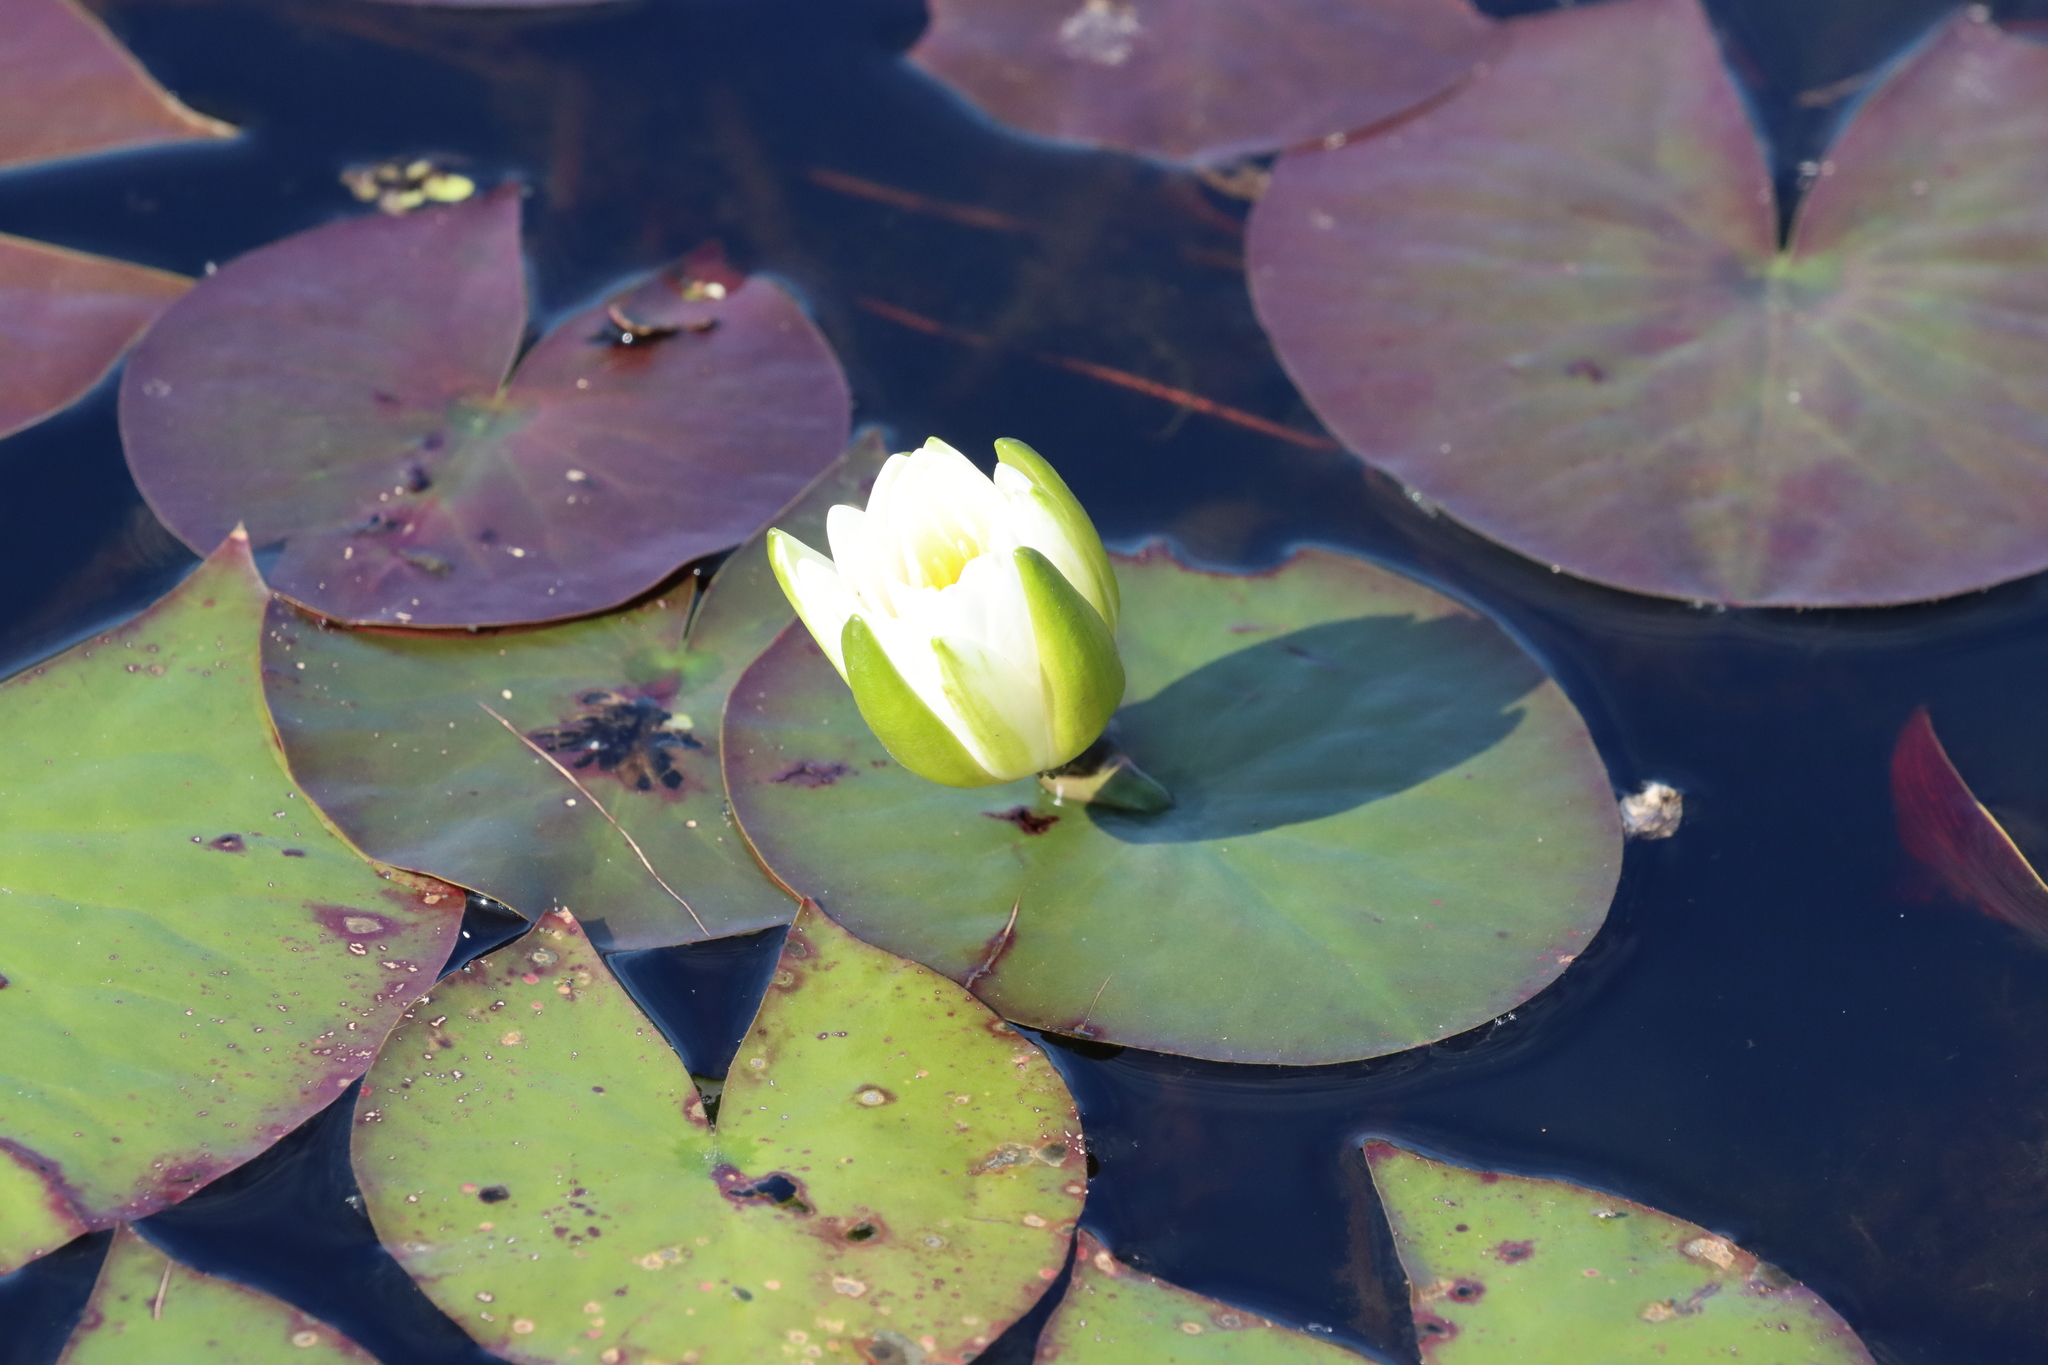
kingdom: Plantae
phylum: Tracheophyta
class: Magnoliopsida
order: Nymphaeales
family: Nymphaeaceae
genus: Nymphaea
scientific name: Nymphaea odorata
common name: Fragrant water-lily
